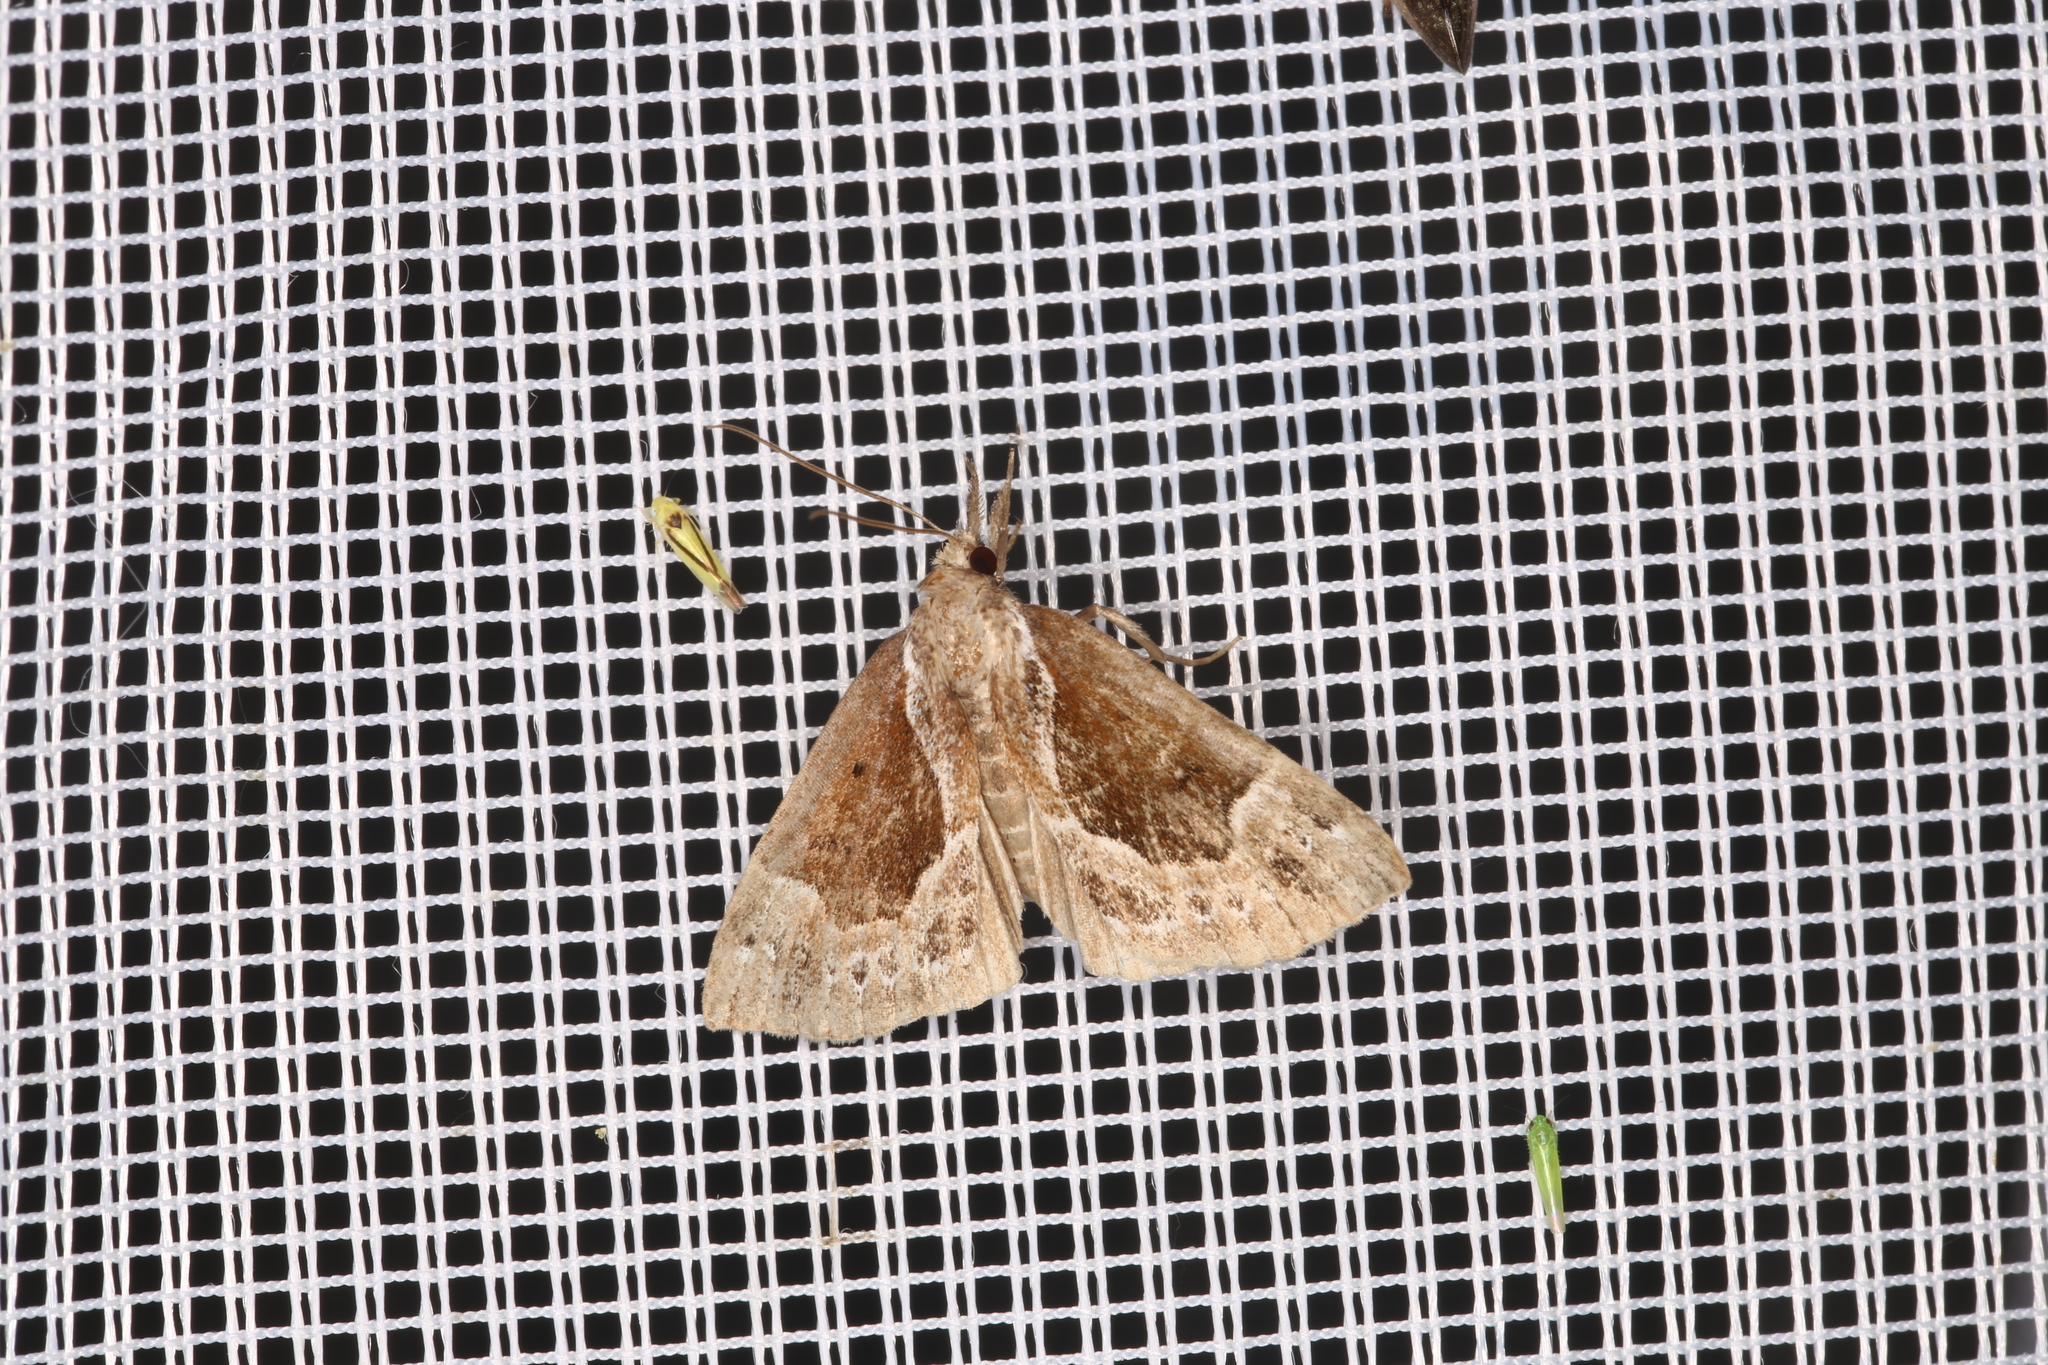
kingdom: Animalia
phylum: Arthropoda
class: Insecta
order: Lepidoptera
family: Erebidae
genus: Hypena
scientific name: Hypena crassalis
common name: Beautiful snout
